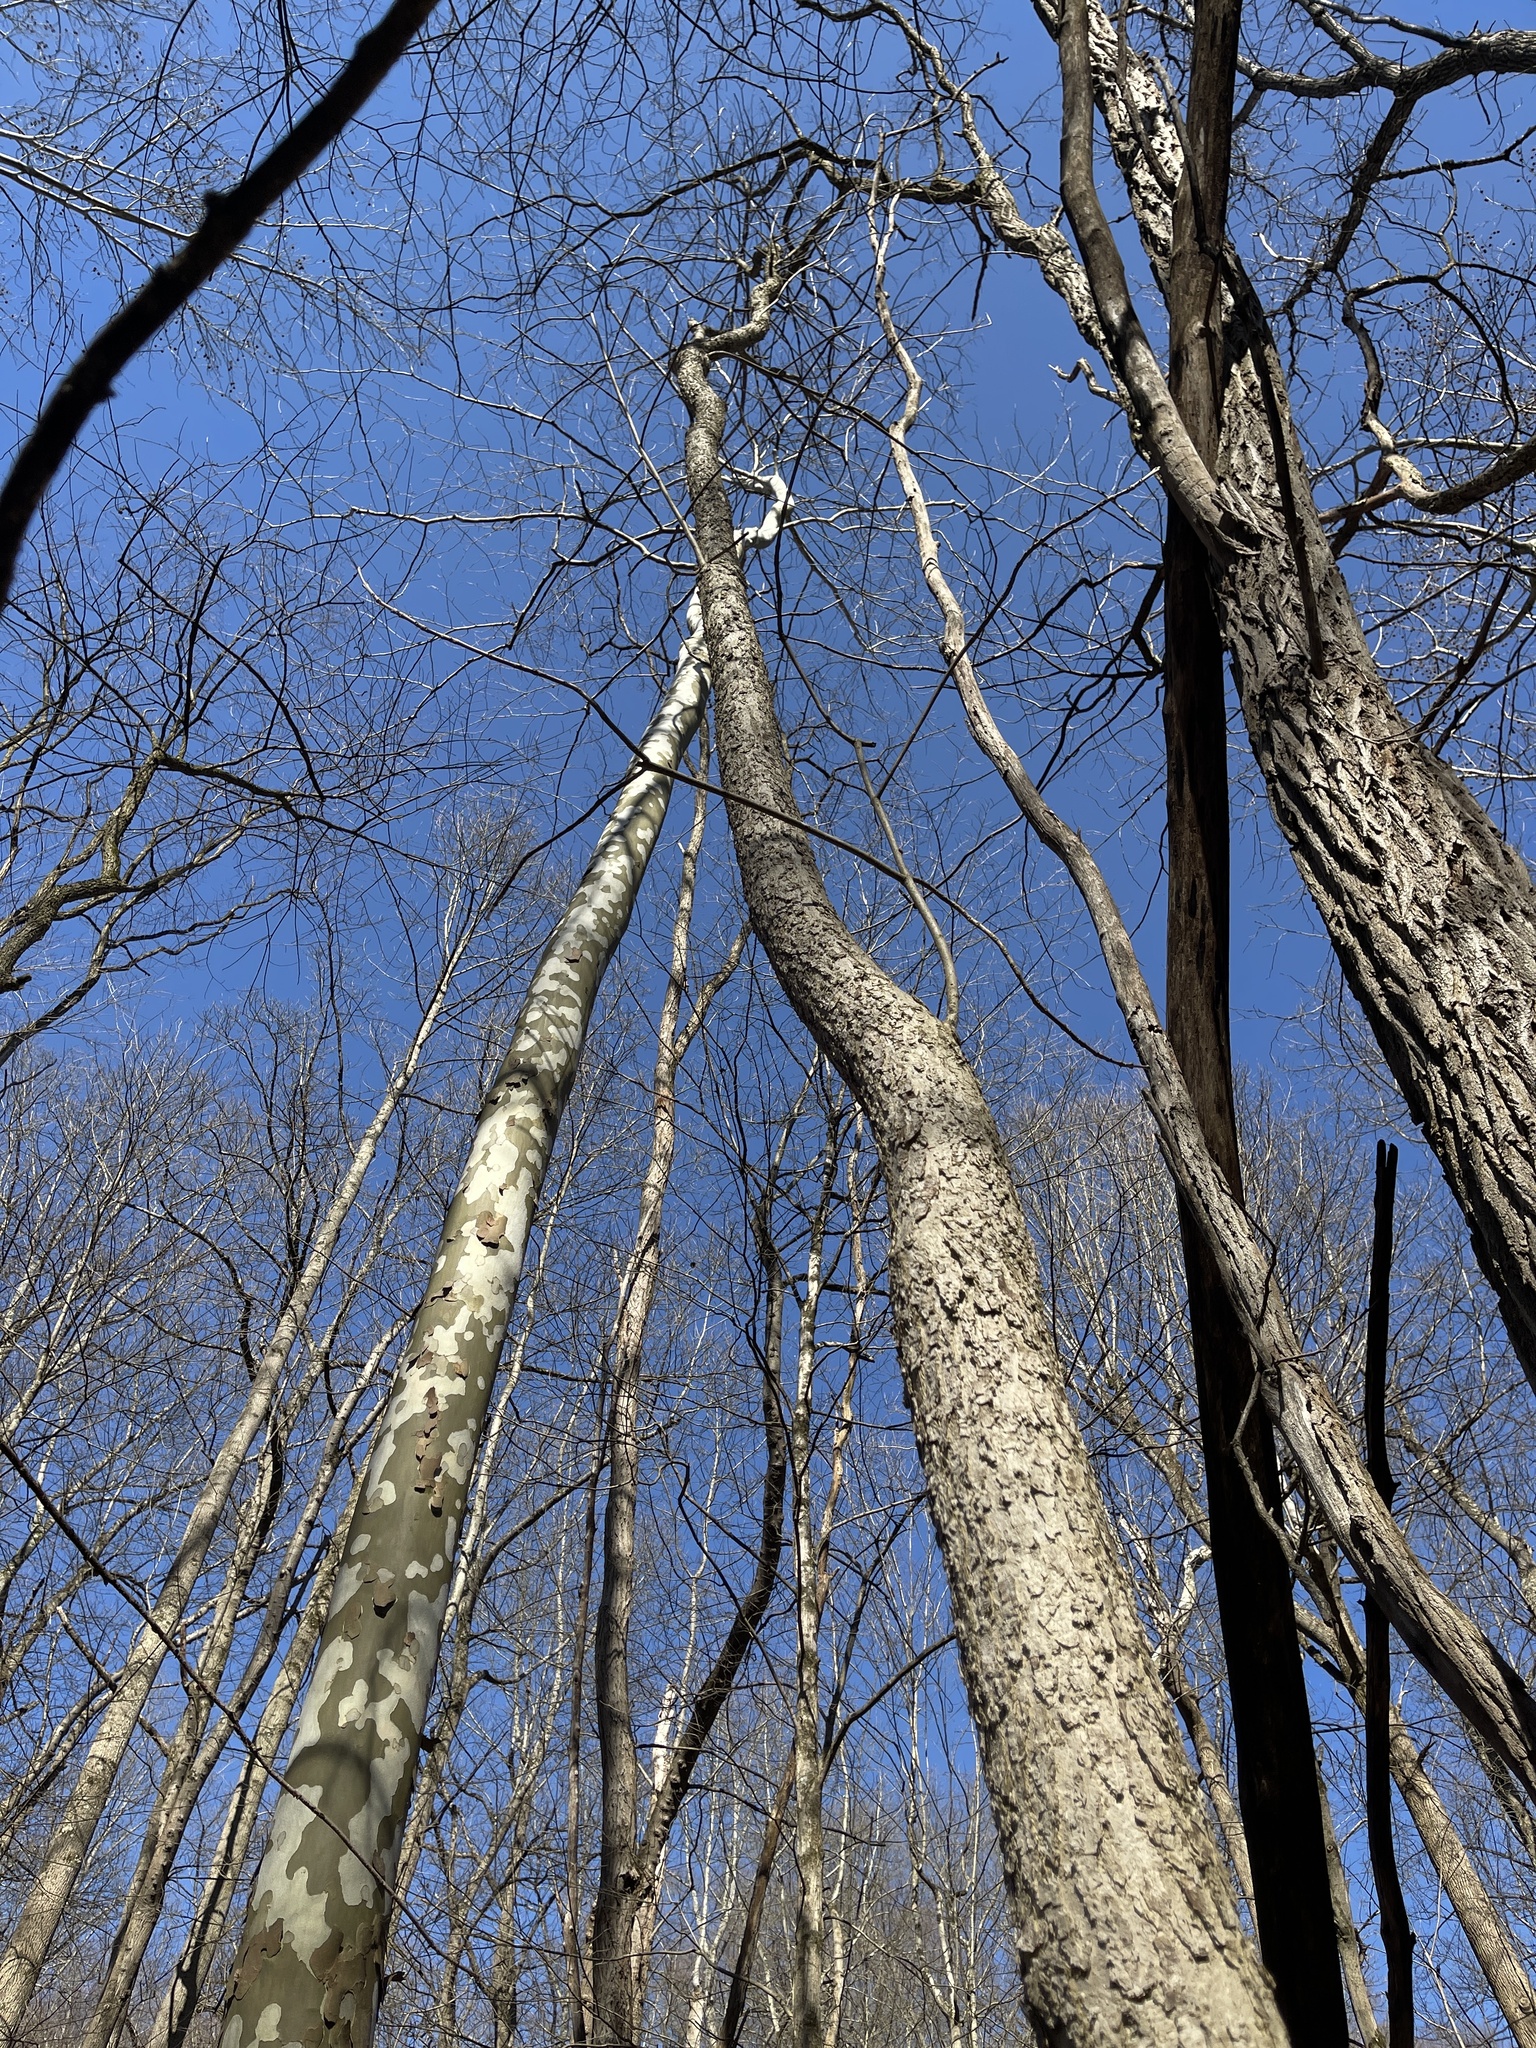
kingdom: Plantae
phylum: Tracheophyta
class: Magnoliopsida
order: Lamiales
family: Oleaceae
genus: Fraxinus
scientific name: Fraxinus nigra
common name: Black ash
